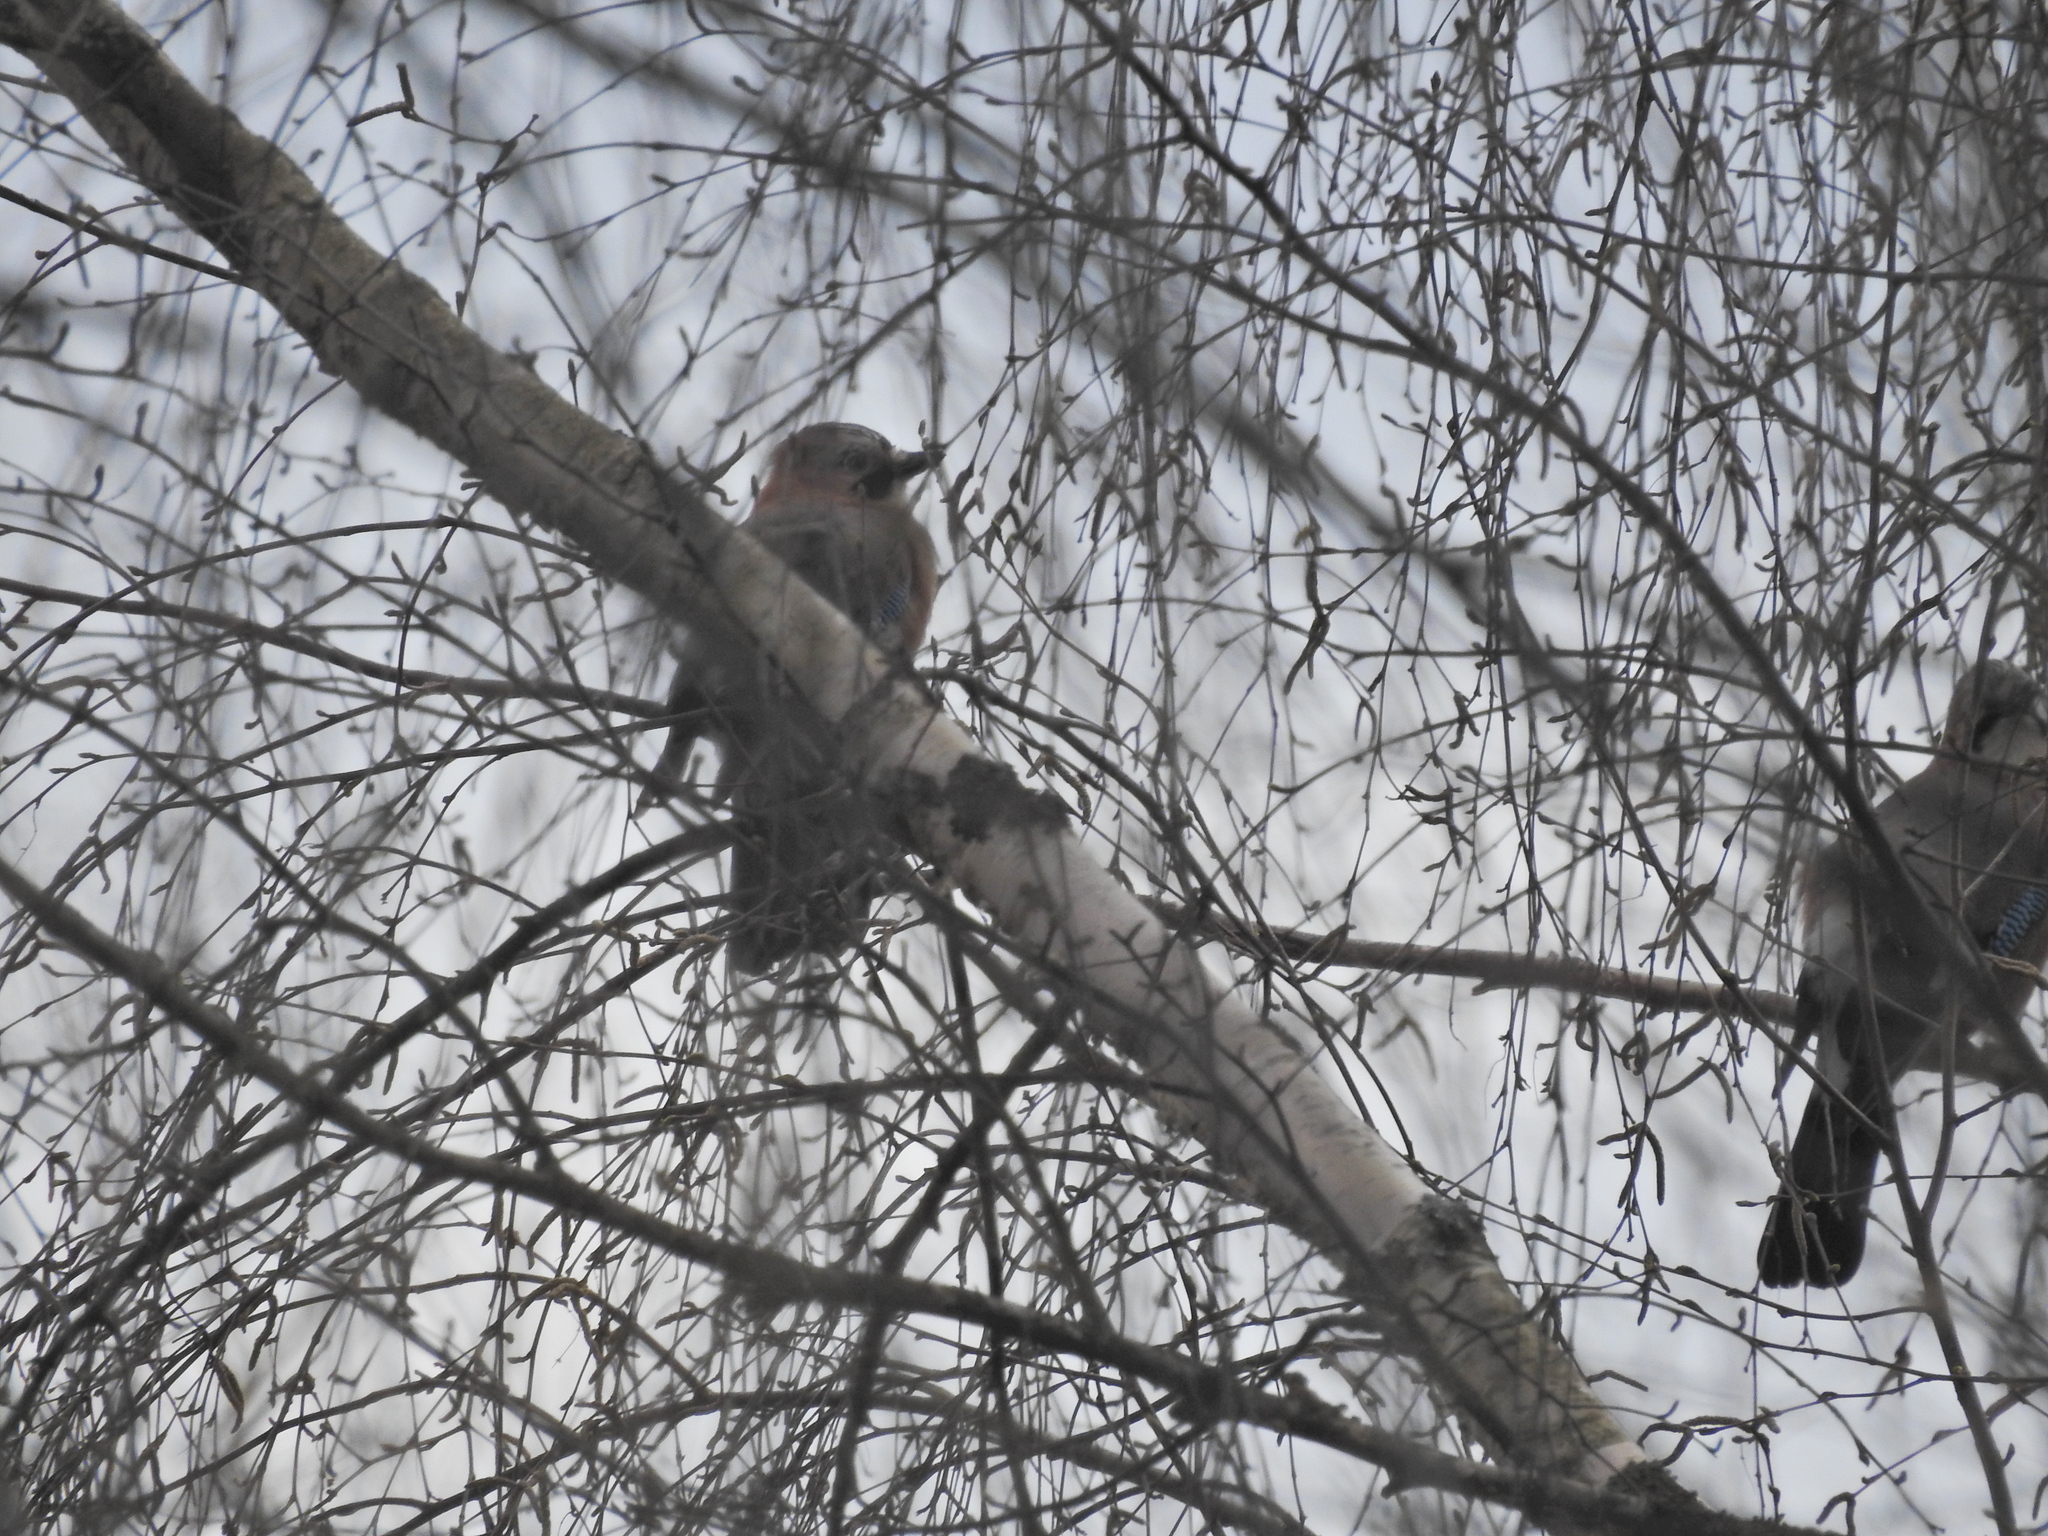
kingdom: Animalia
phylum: Chordata
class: Aves
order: Passeriformes
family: Corvidae
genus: Garrulus
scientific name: Garrulus glandarius
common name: Eurasian jay
